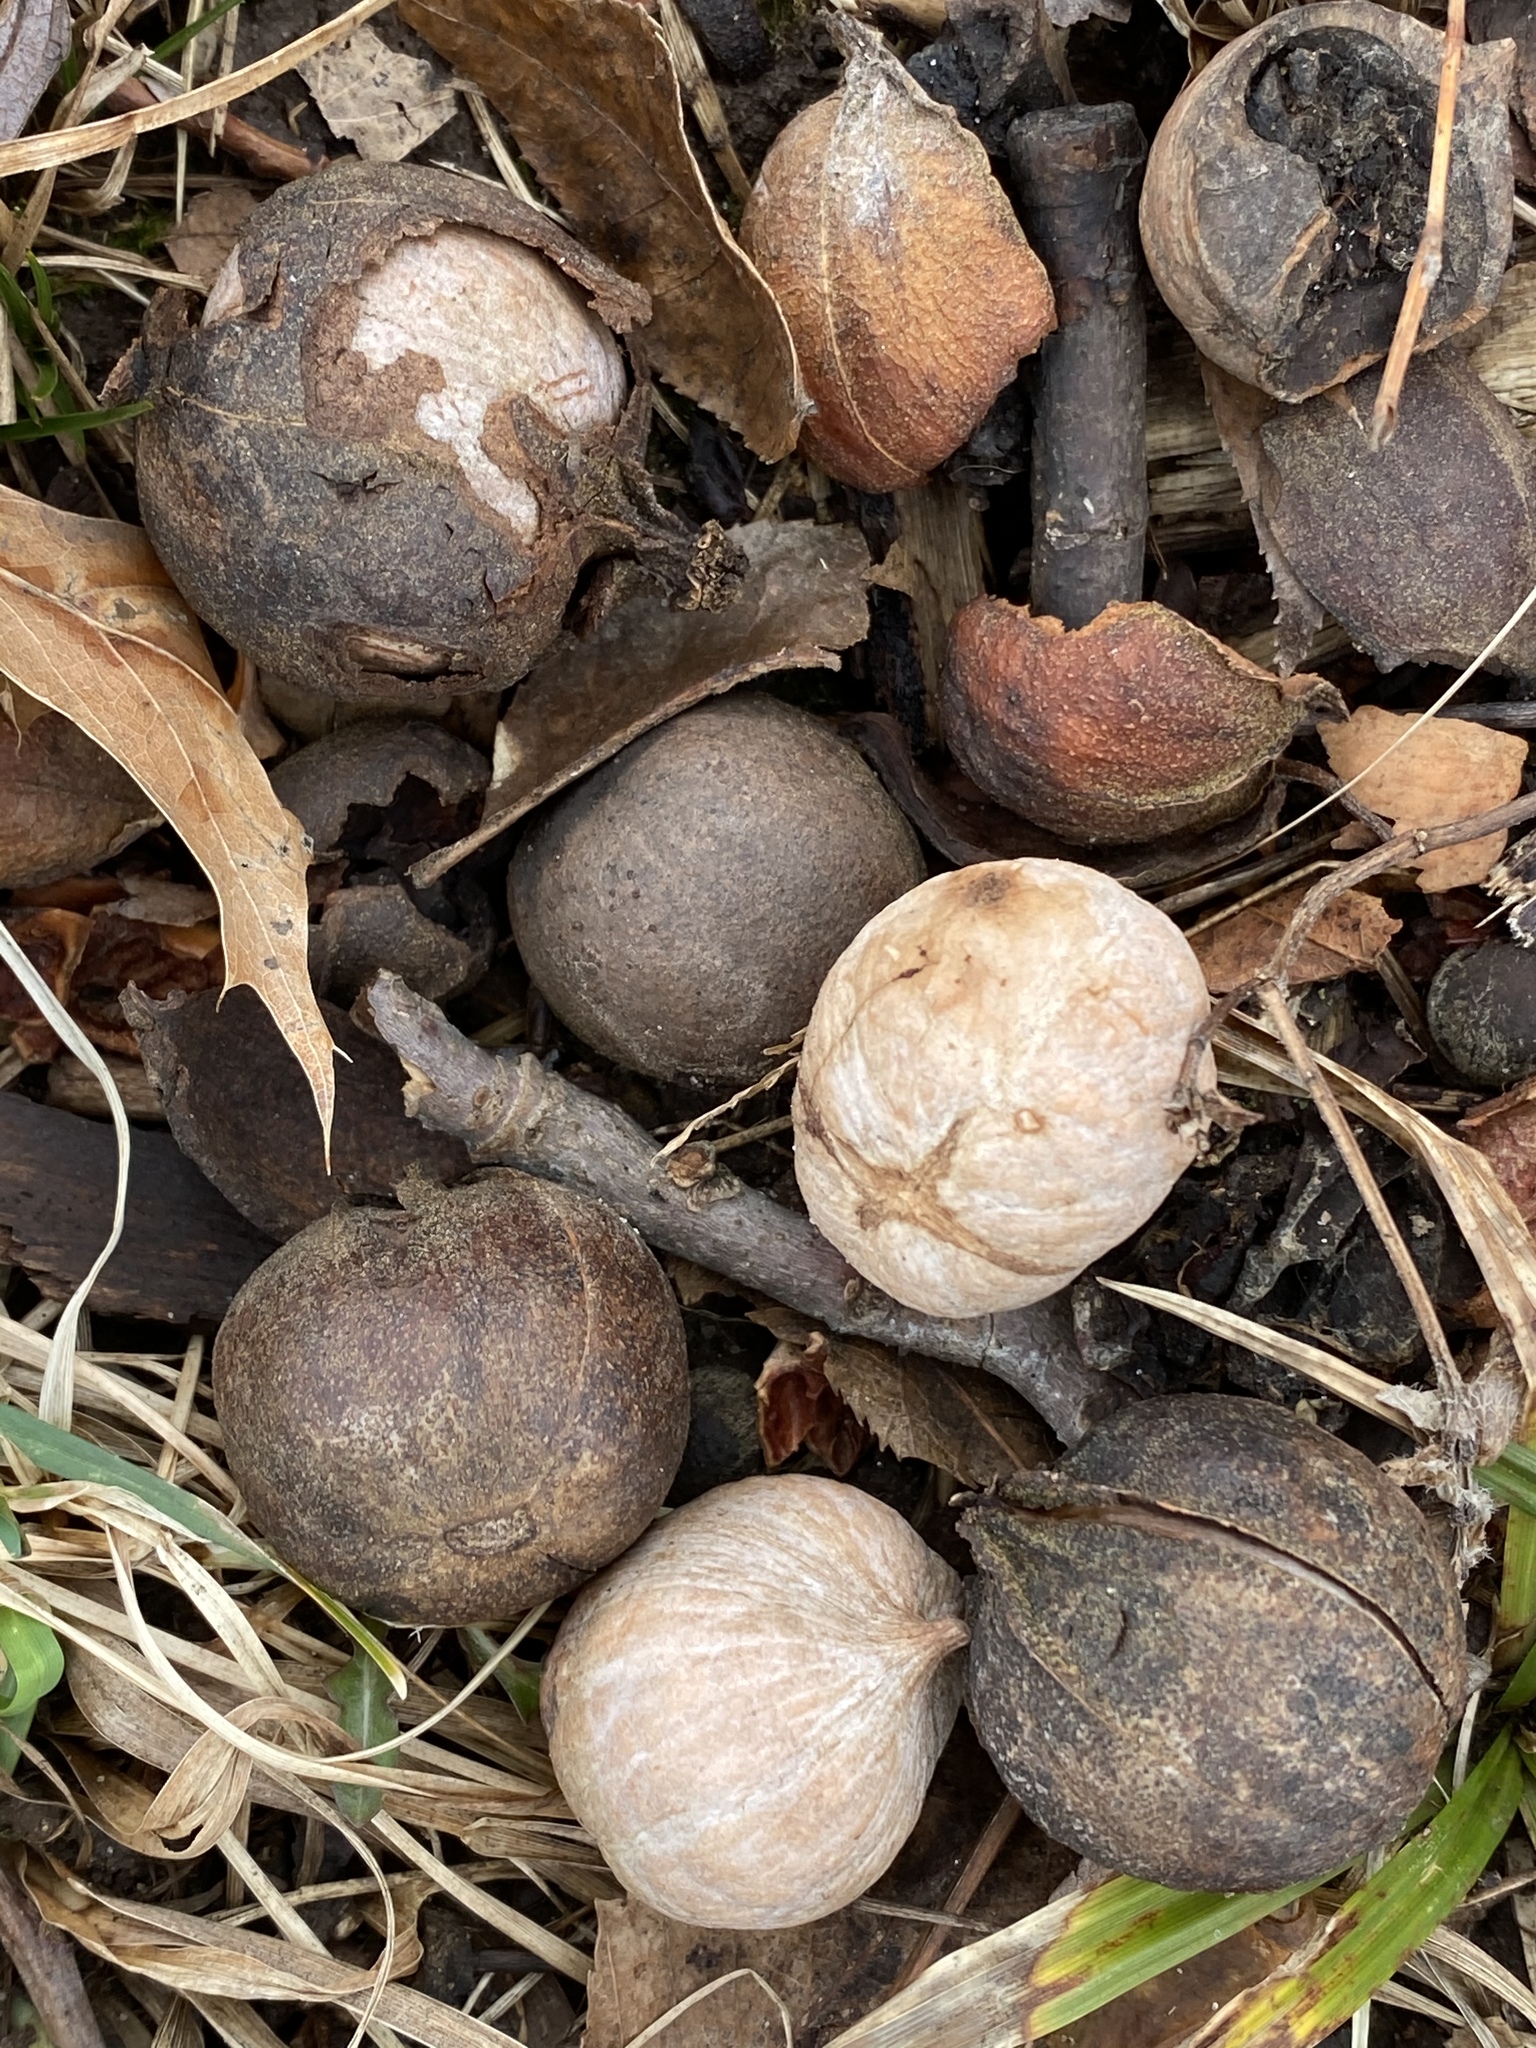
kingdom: Plantae
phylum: Tracheophyta
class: Magnoliopsida
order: Fagales
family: Juglandaceae
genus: Carya
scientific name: Carya glabra
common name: Pignut hickory
